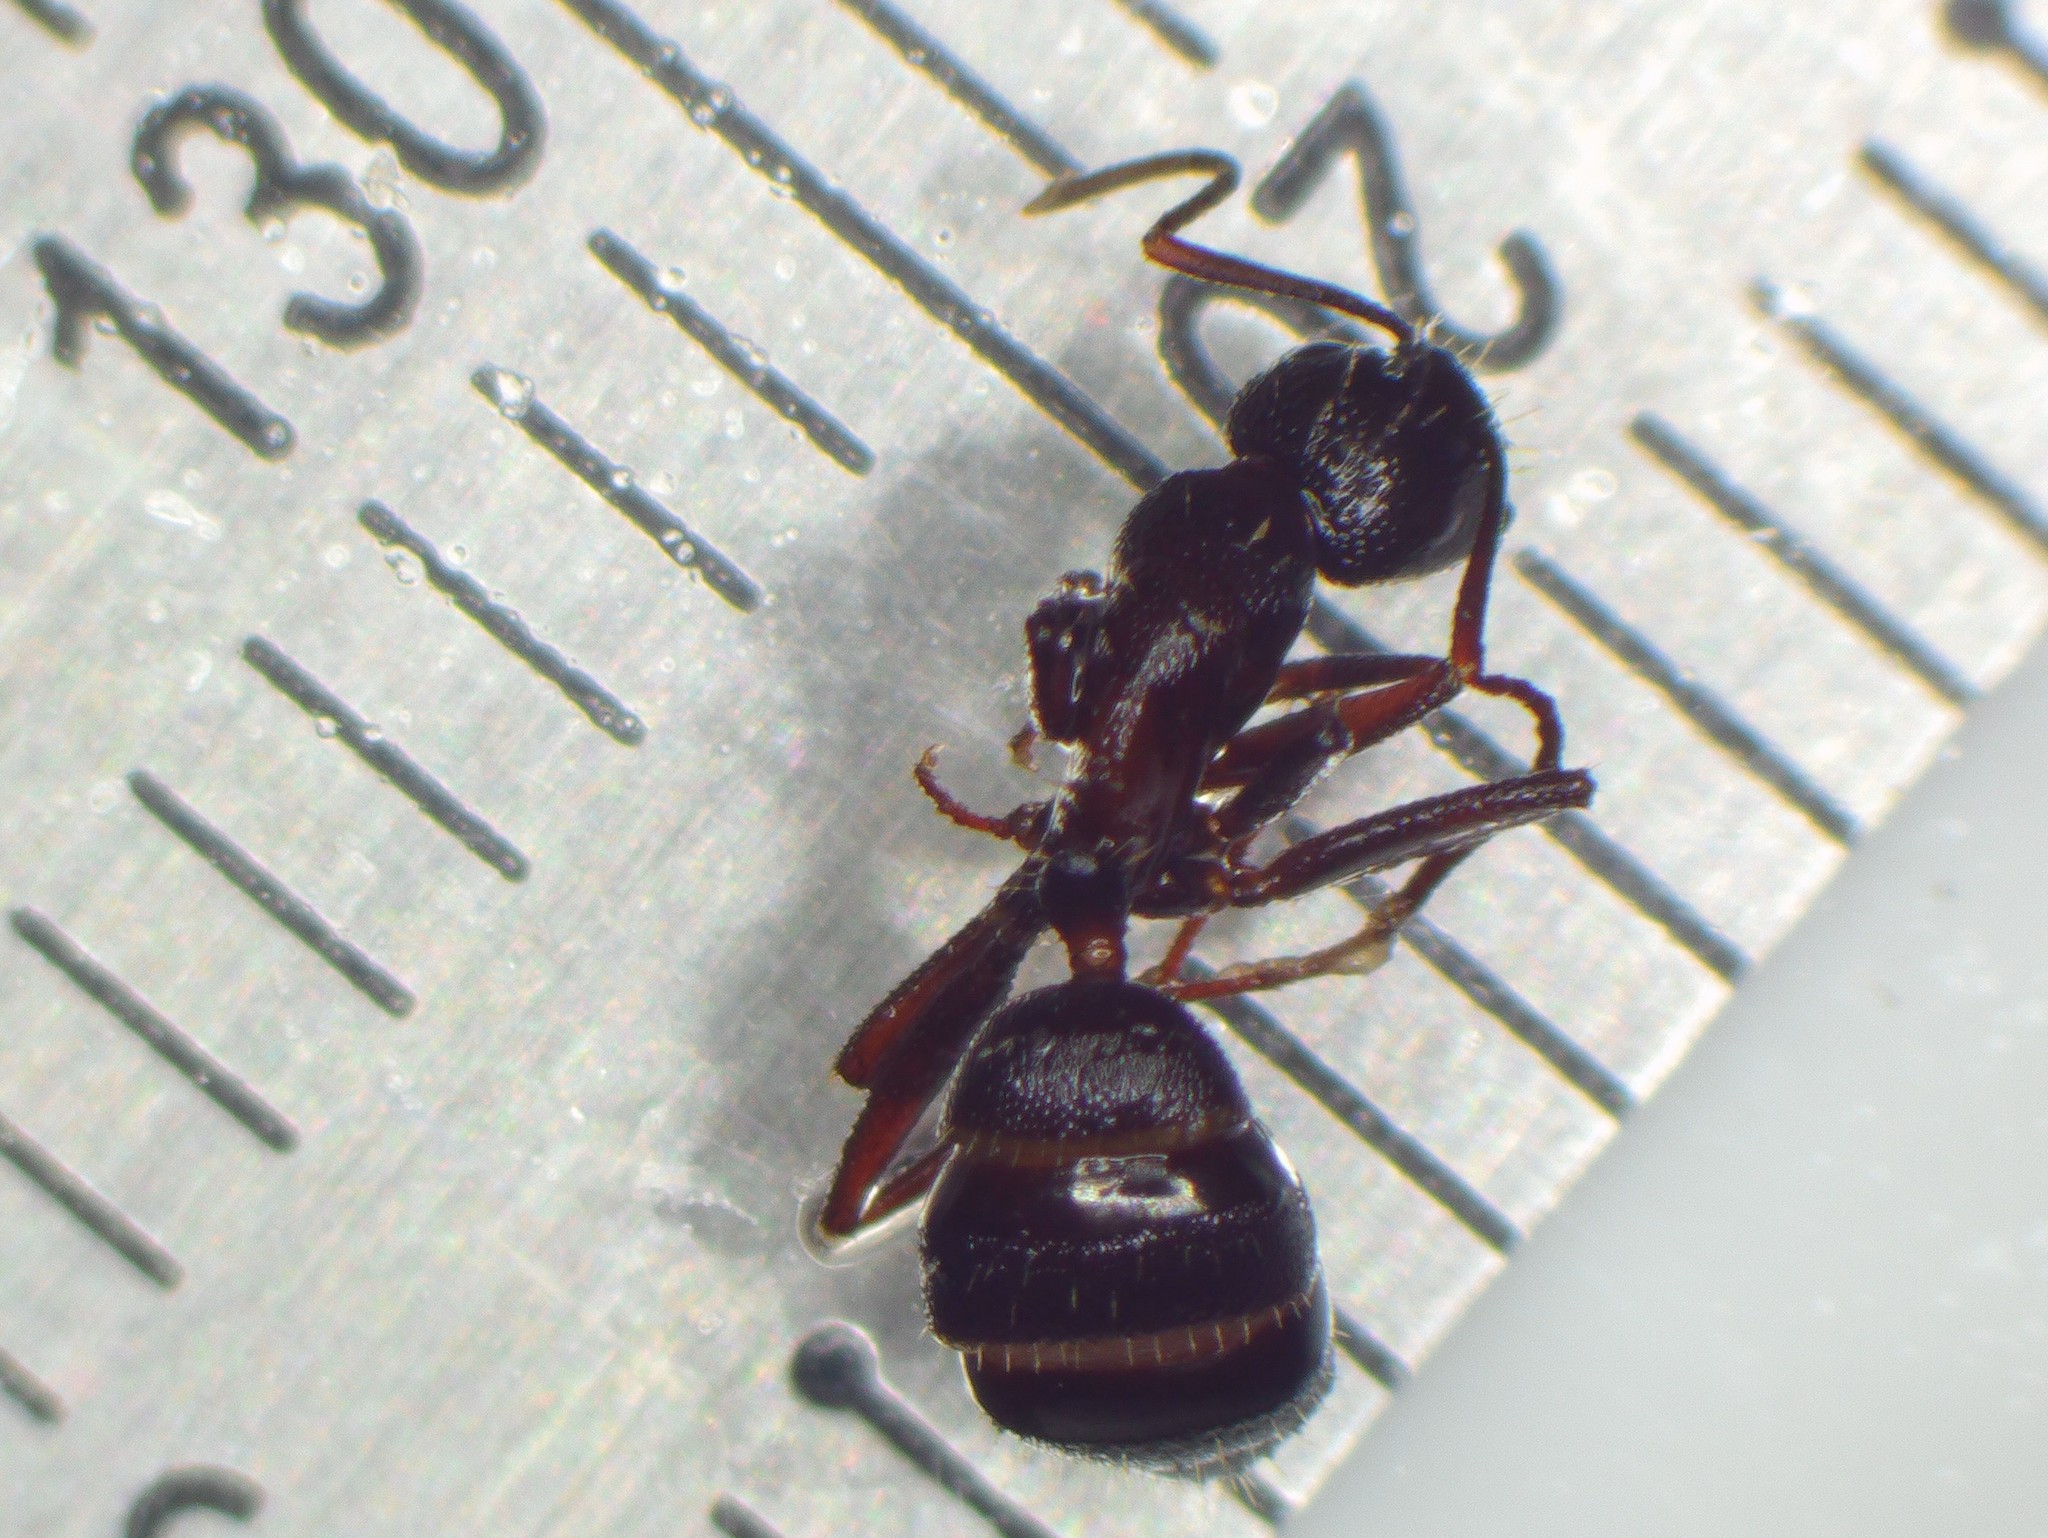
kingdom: Animalia
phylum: Arthropoda
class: Insecta
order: Hymenoptera
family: Formicidae
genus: Camponotus
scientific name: Camponotus herculeanus
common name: Hercules ant
